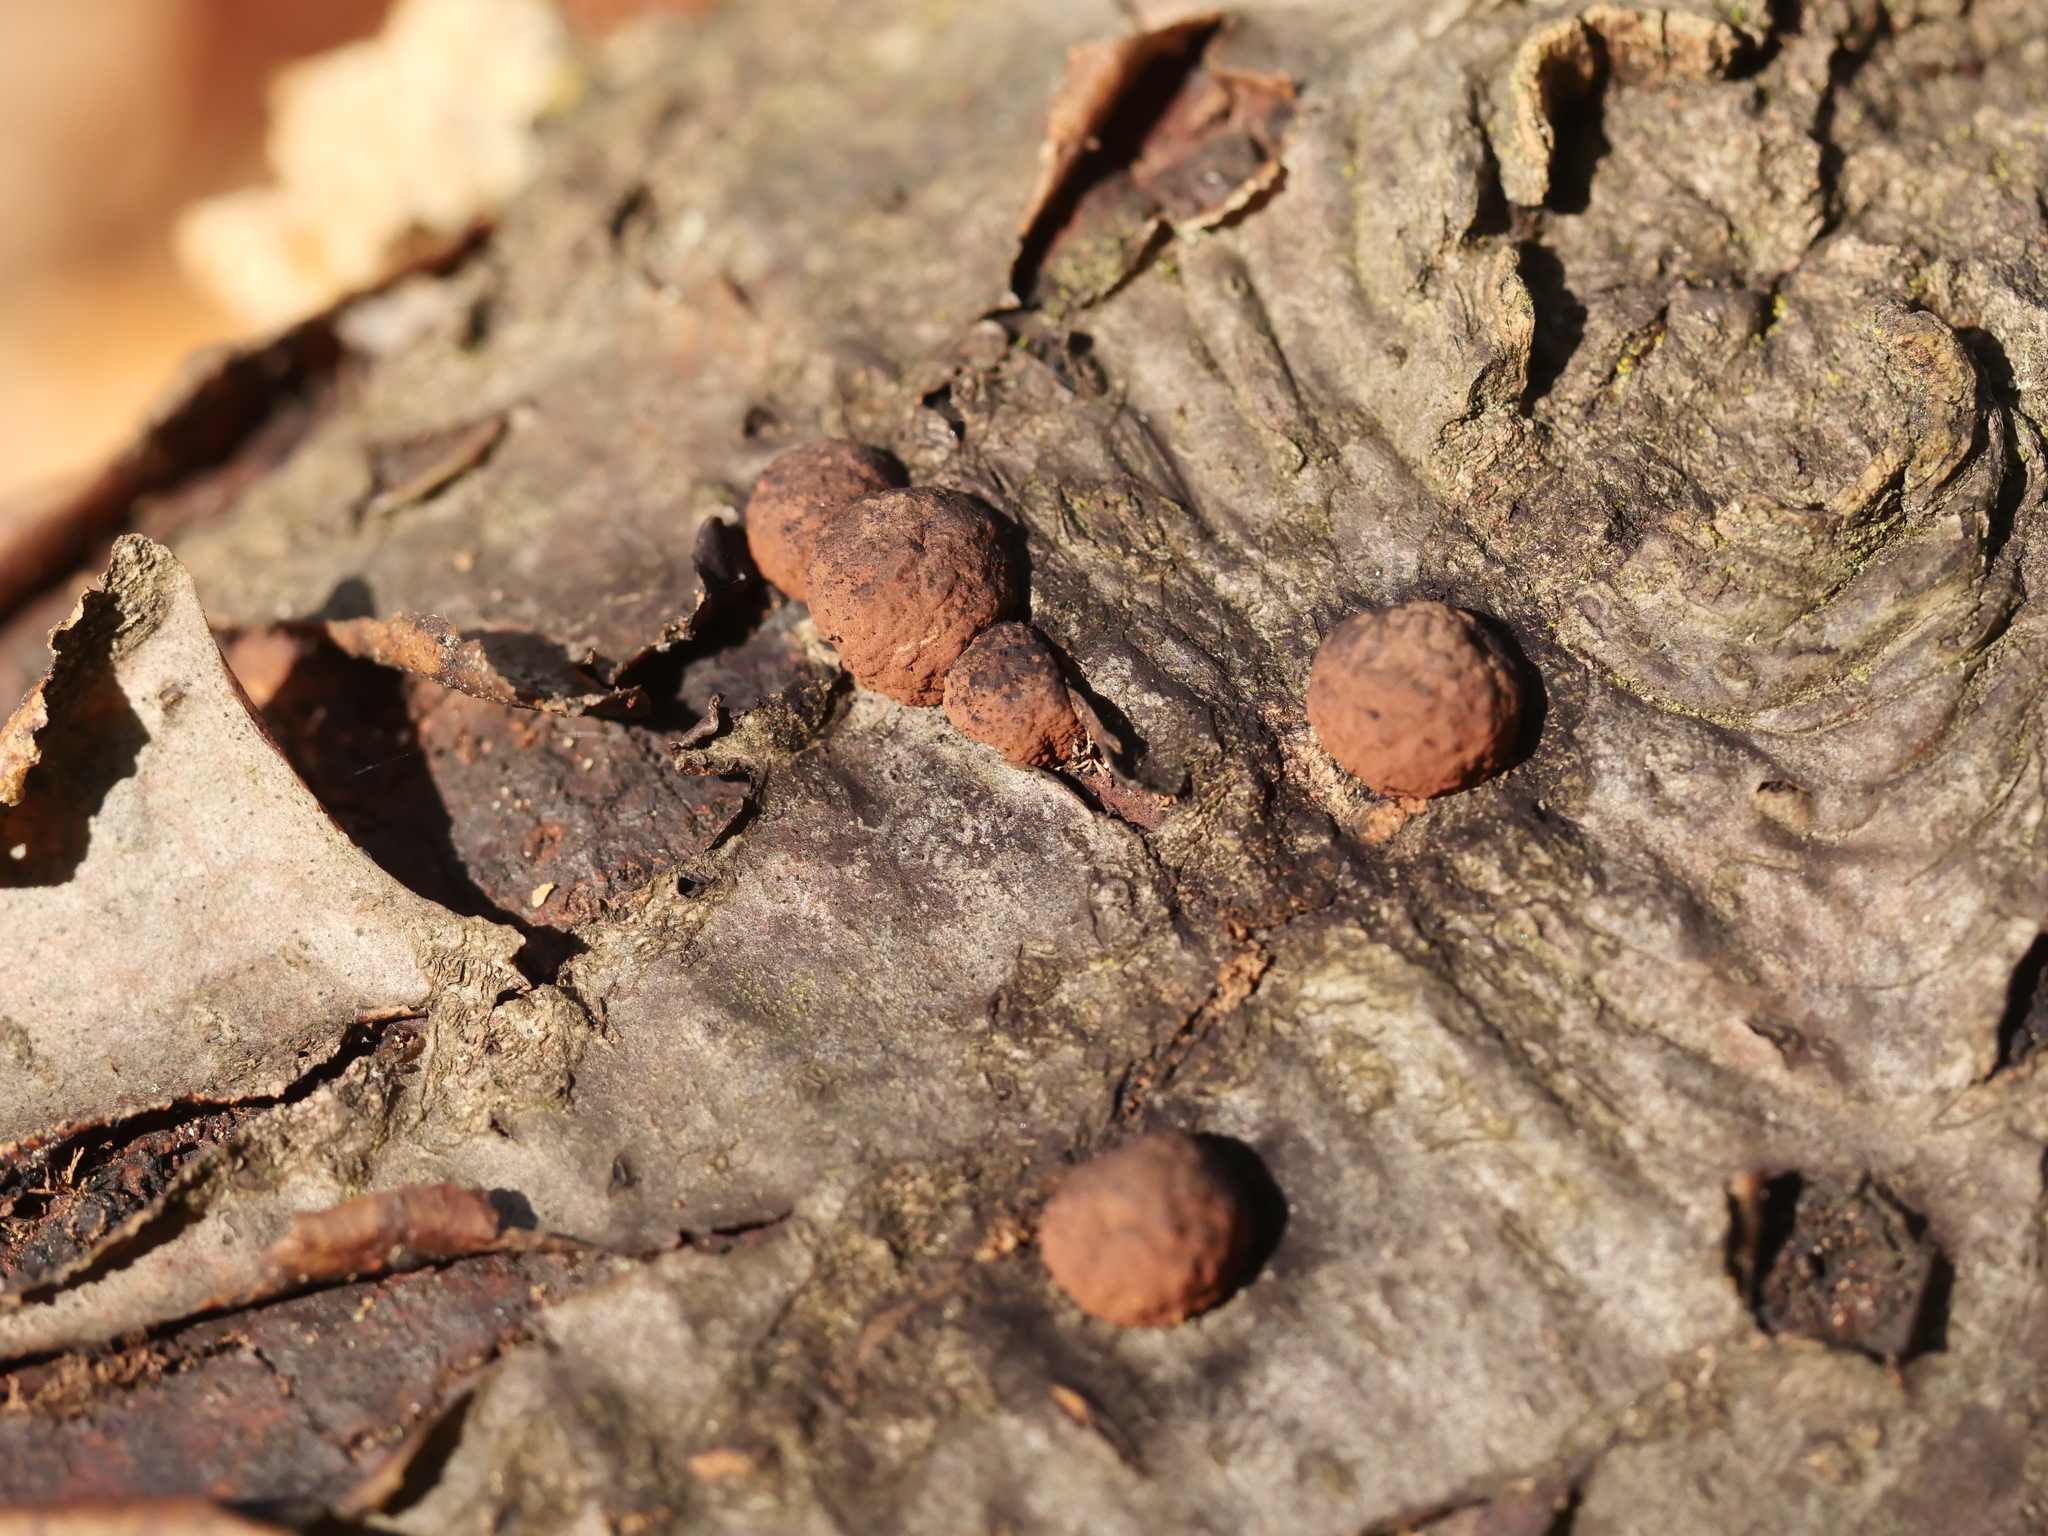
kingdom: Fungi
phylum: Ascomycota
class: Sordariomycetes
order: Xylariales
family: Hypoxylaceae
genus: Hypoxylon
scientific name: Hypoxylon fragiforme
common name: Beech woodwart
